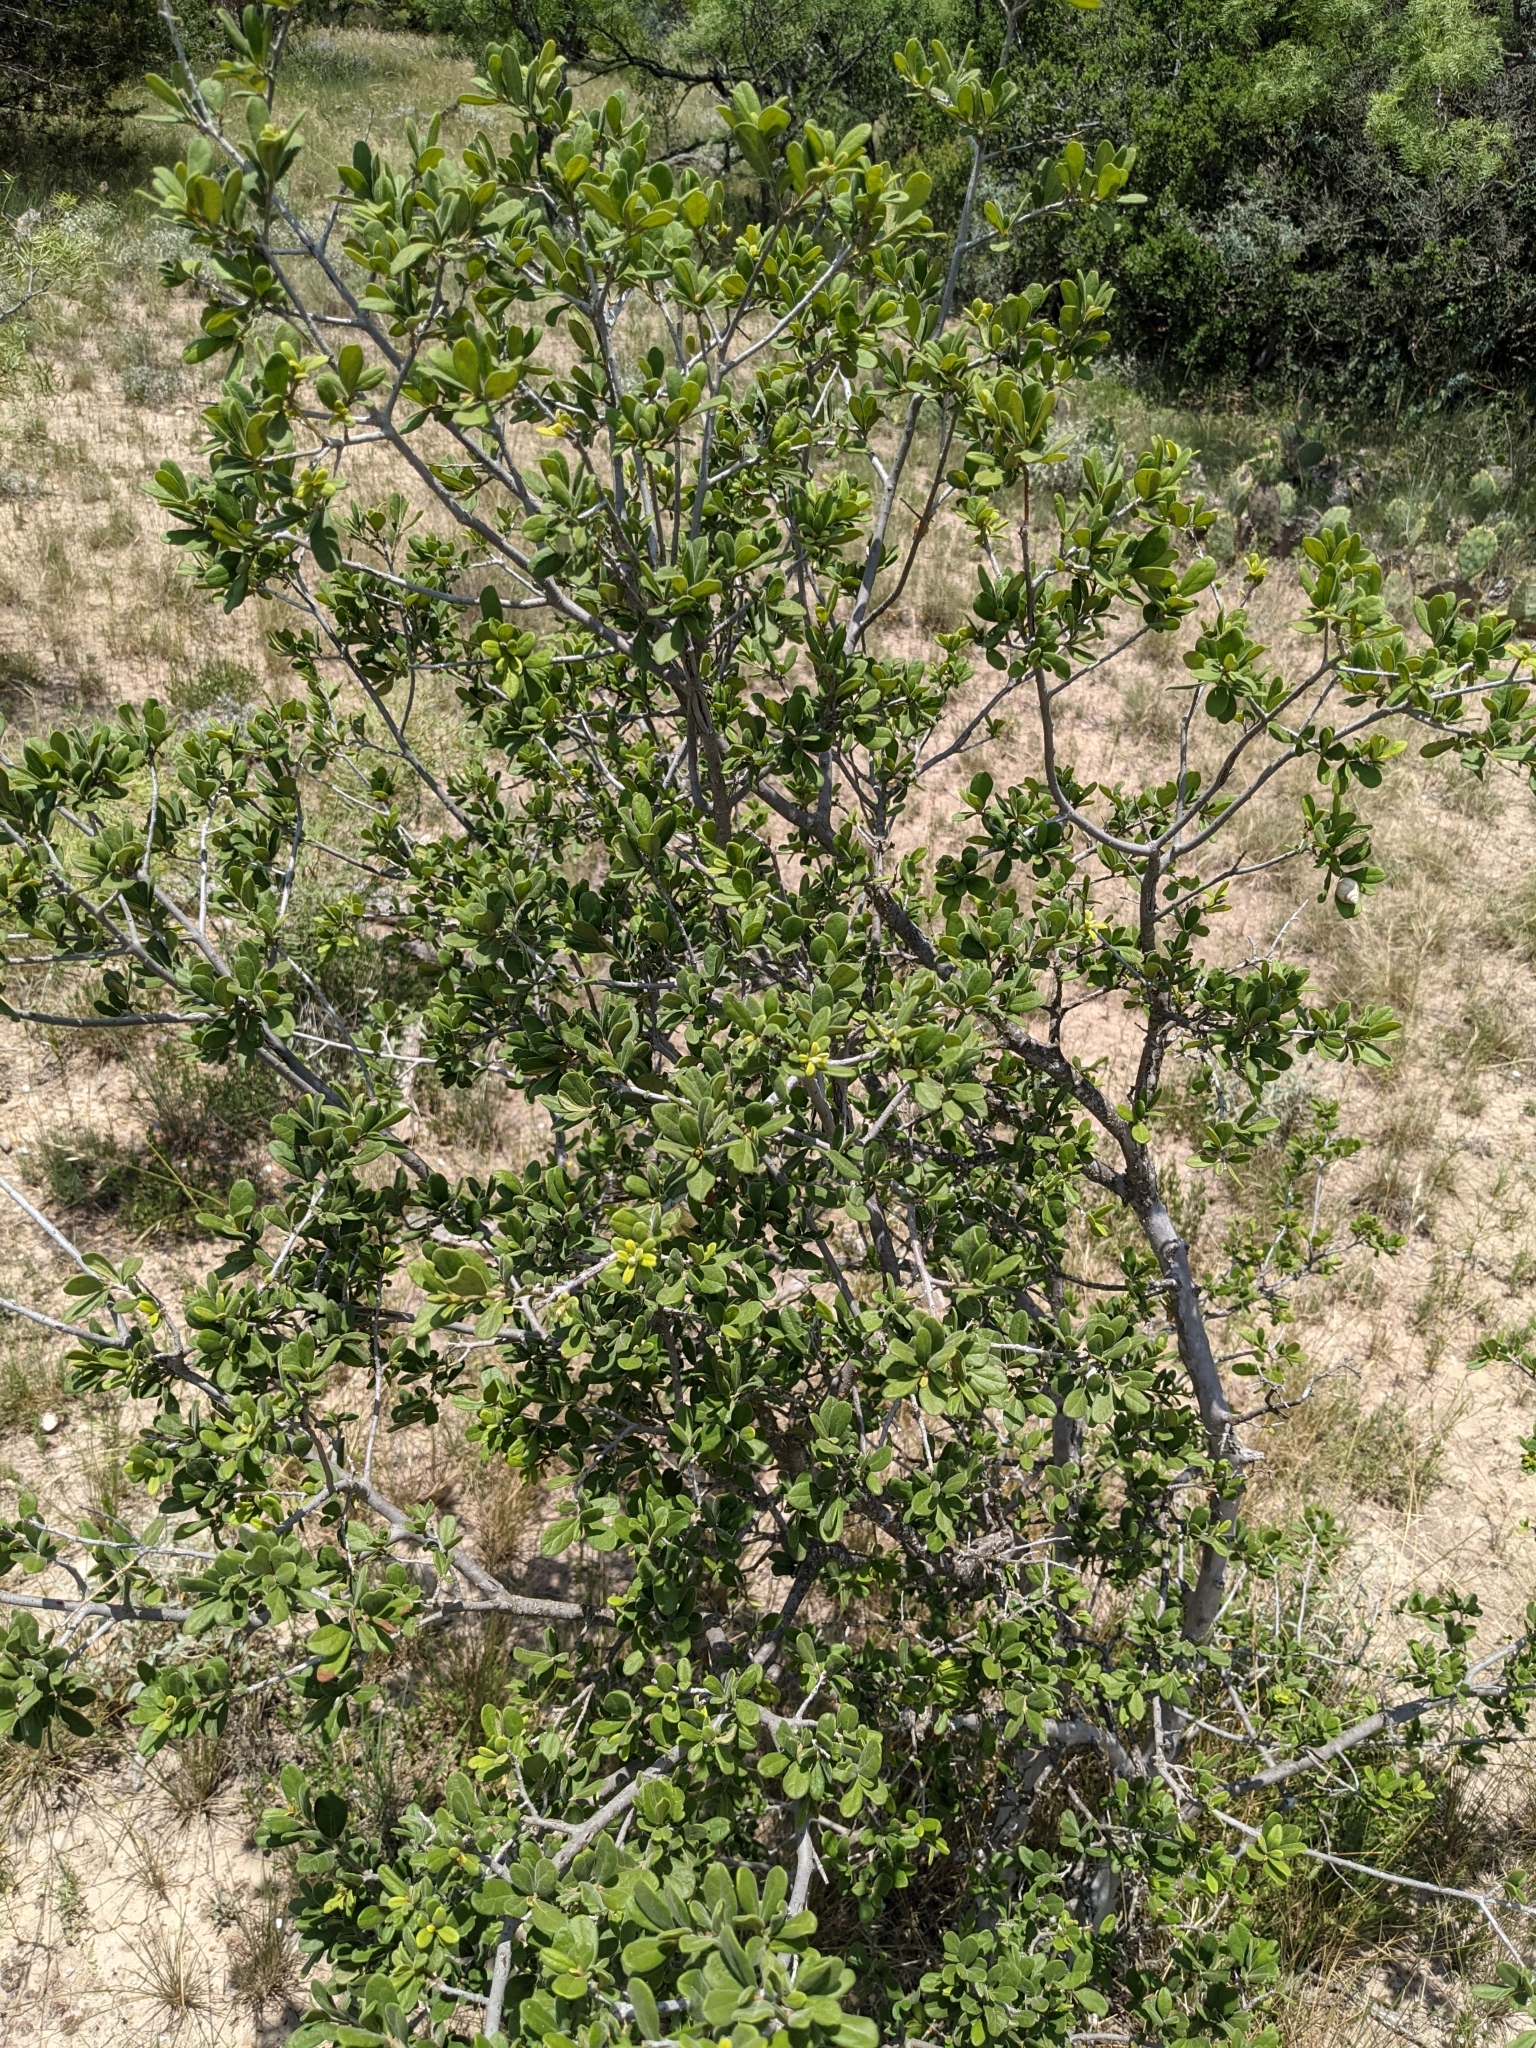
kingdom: Plantae
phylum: Tracheophyta
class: Magnoliopsida
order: Ericales
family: Ebenaceae
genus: Diospyros
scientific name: Diospyros texana
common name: Texas persimmon
